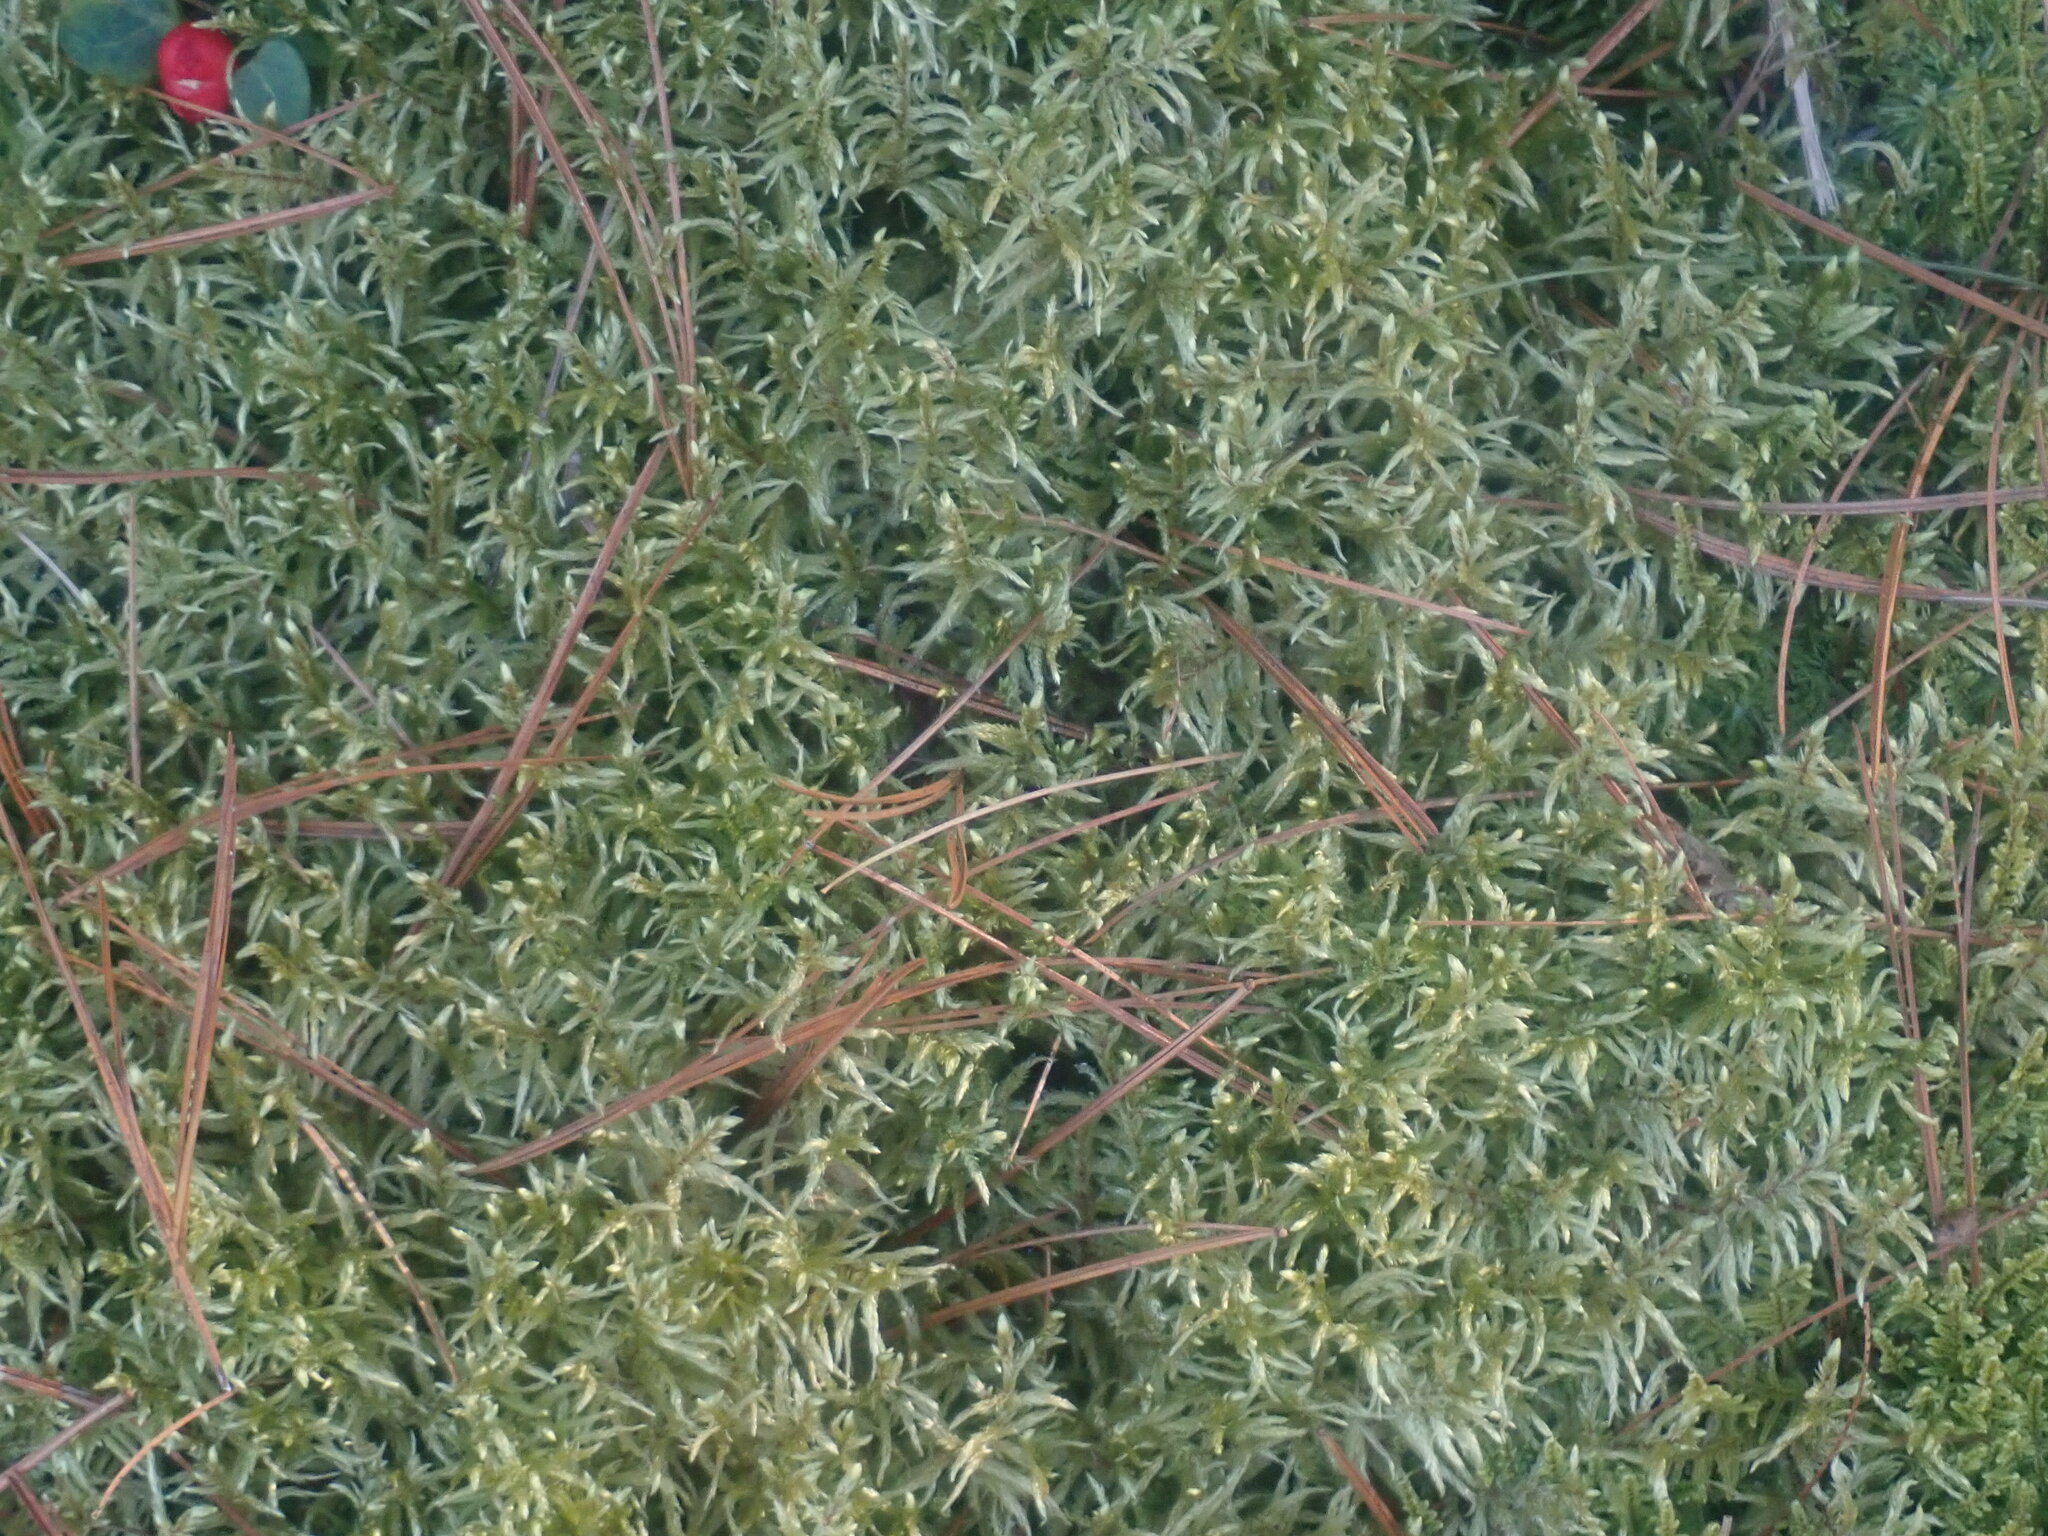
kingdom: Plantae
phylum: Bryophyta
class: Bryopsida
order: Hypnales
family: Hylocomiaceae
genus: Pleurozium
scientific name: Pleurozium schreberi
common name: Red-stemmed feather moss
